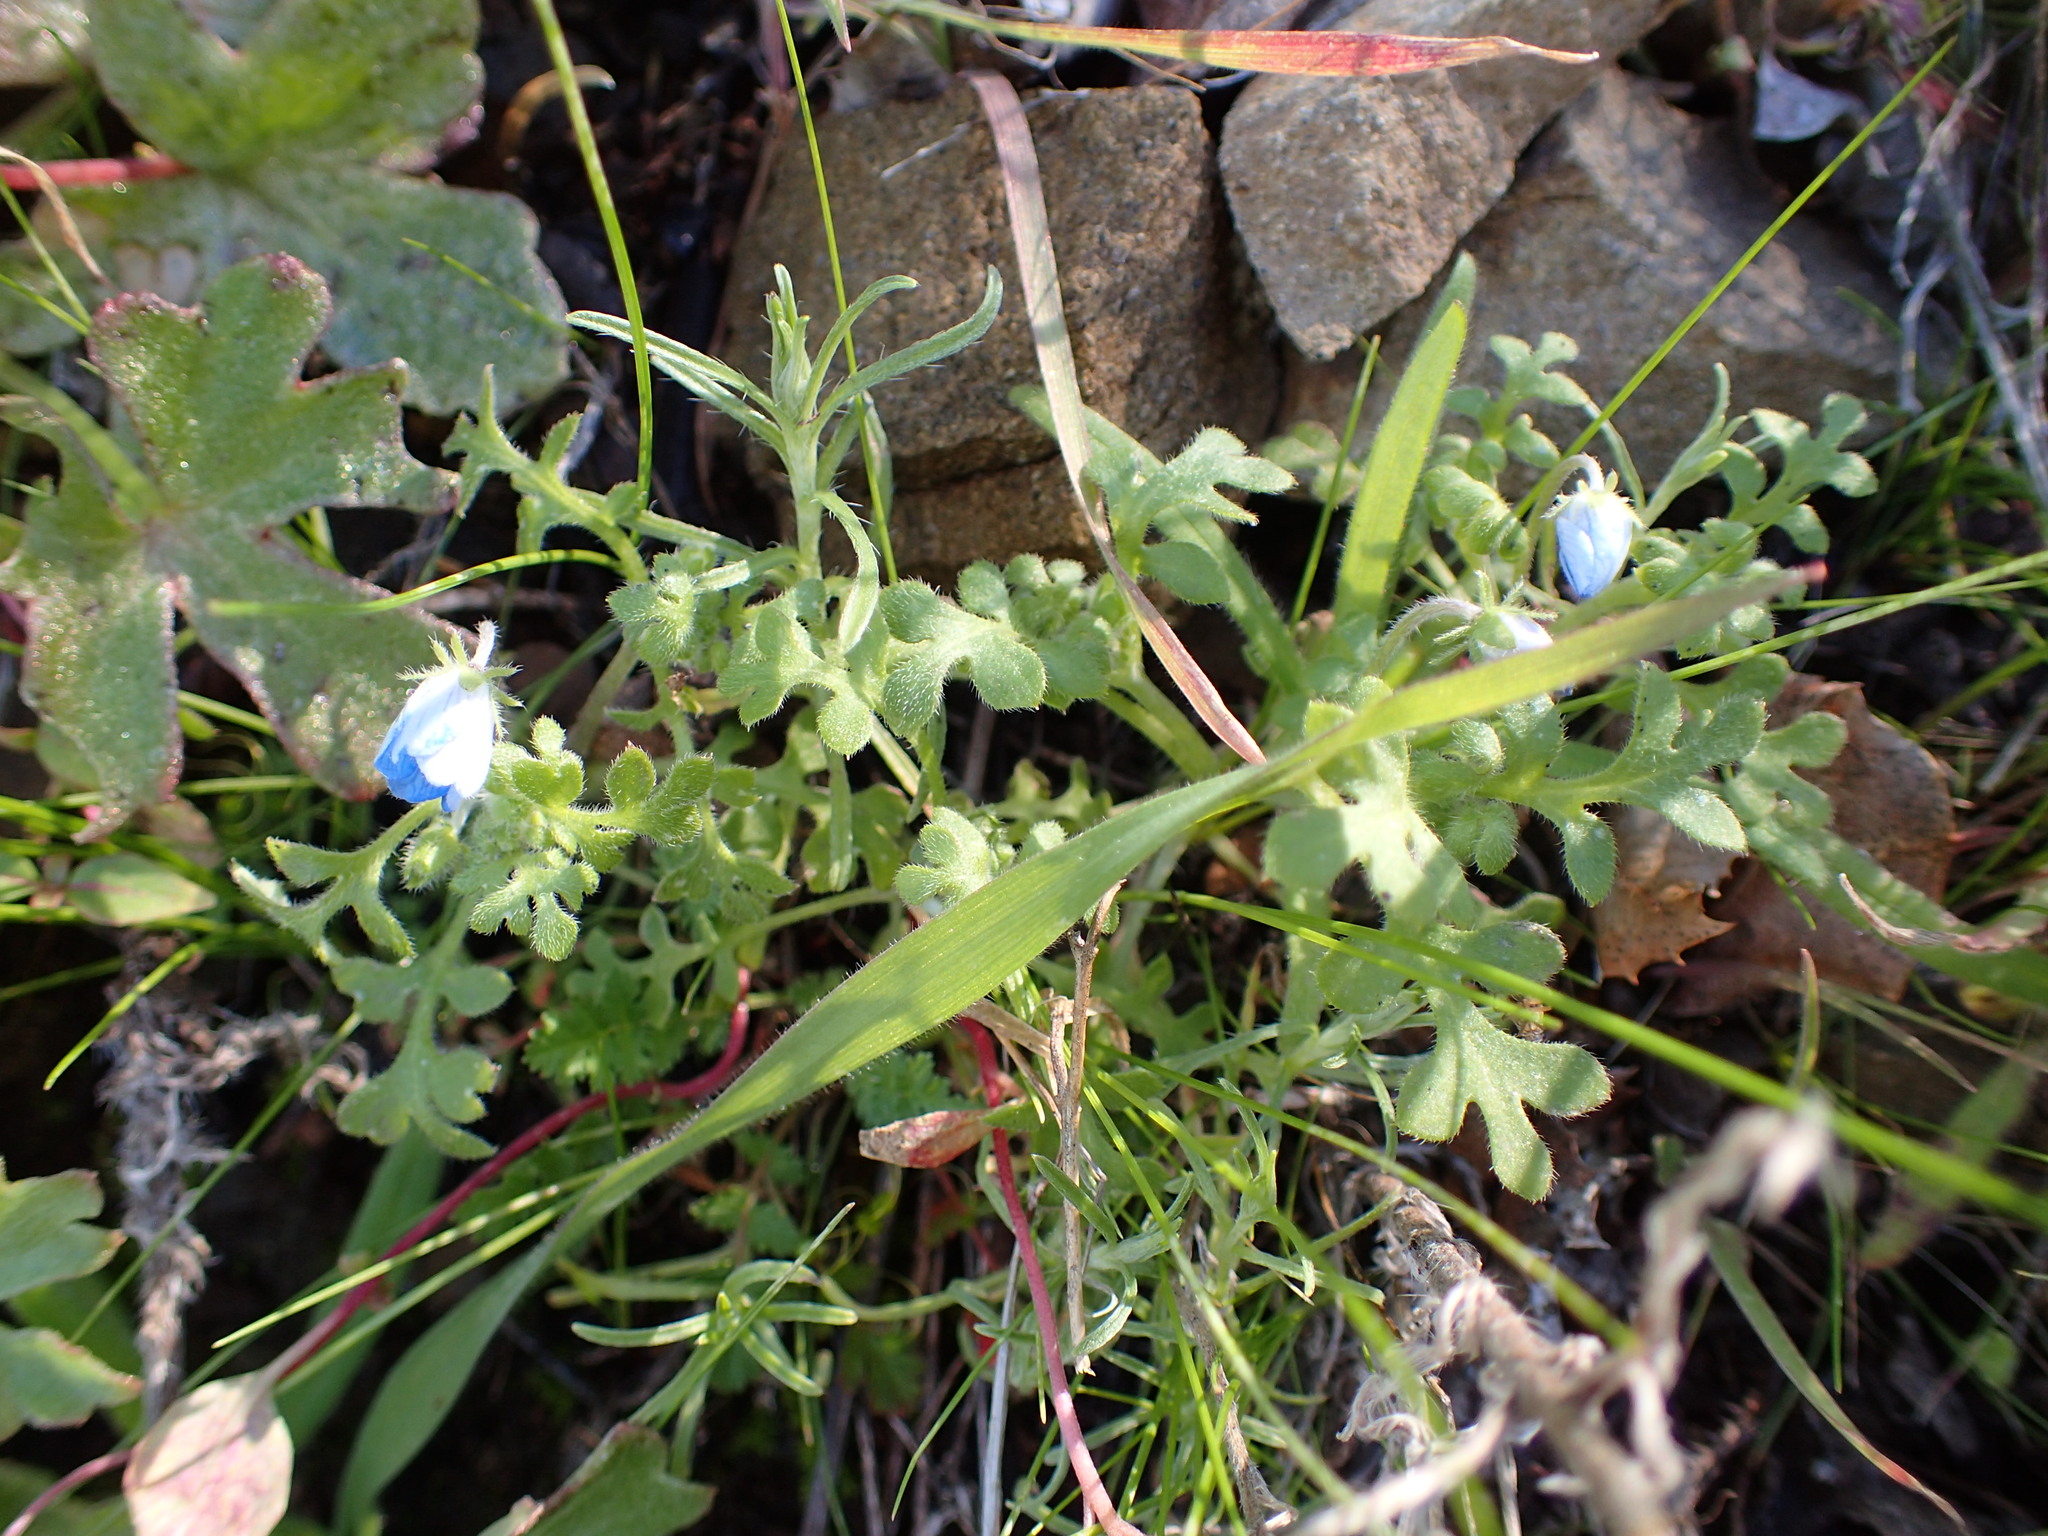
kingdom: Plantae
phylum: Tracheophyta
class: Magnoliopsida
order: Boraginales
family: Hydrophyllaceae
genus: Nemophila
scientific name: Nemophila menziesii
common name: Baby's-blue-eyes
